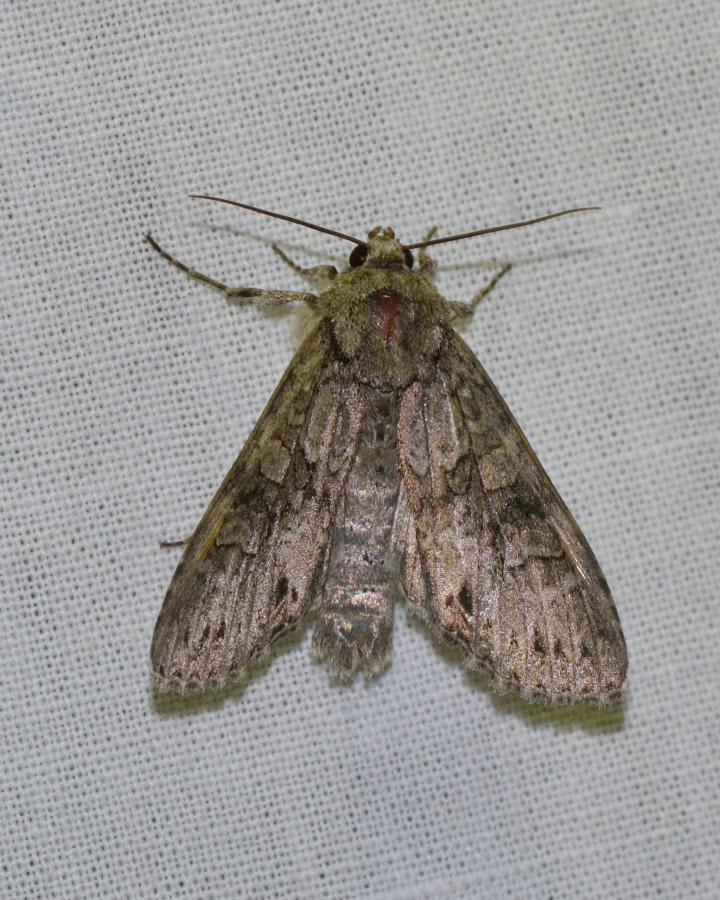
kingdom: Animalia
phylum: Arthropoda
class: Insecta
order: Lepidoptera
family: Noctuidae
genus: Polia
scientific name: Polia nebulosa
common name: Grey arches
